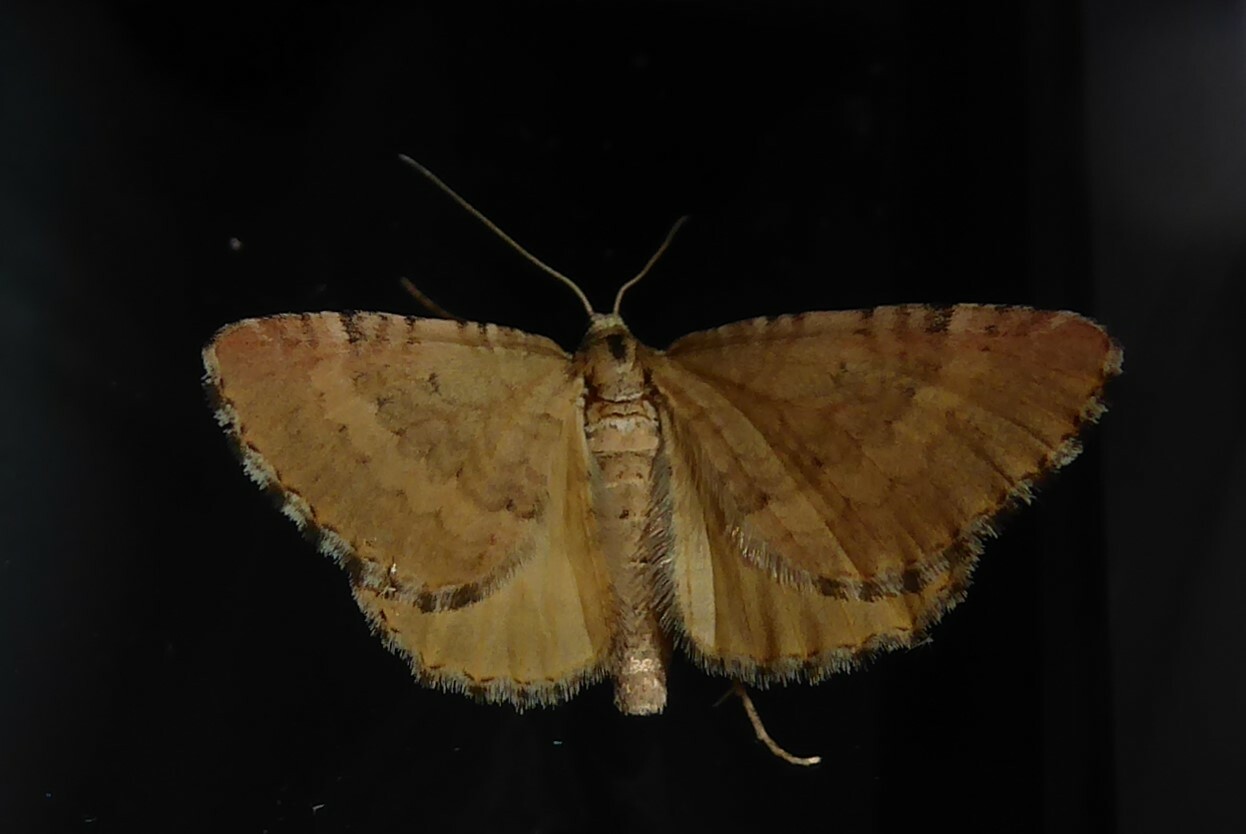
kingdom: Animalia
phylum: Arthropoda
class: Insecta
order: Lepidoptera
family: Geometridae
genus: Asaphodes
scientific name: Asaphodes aegrota
